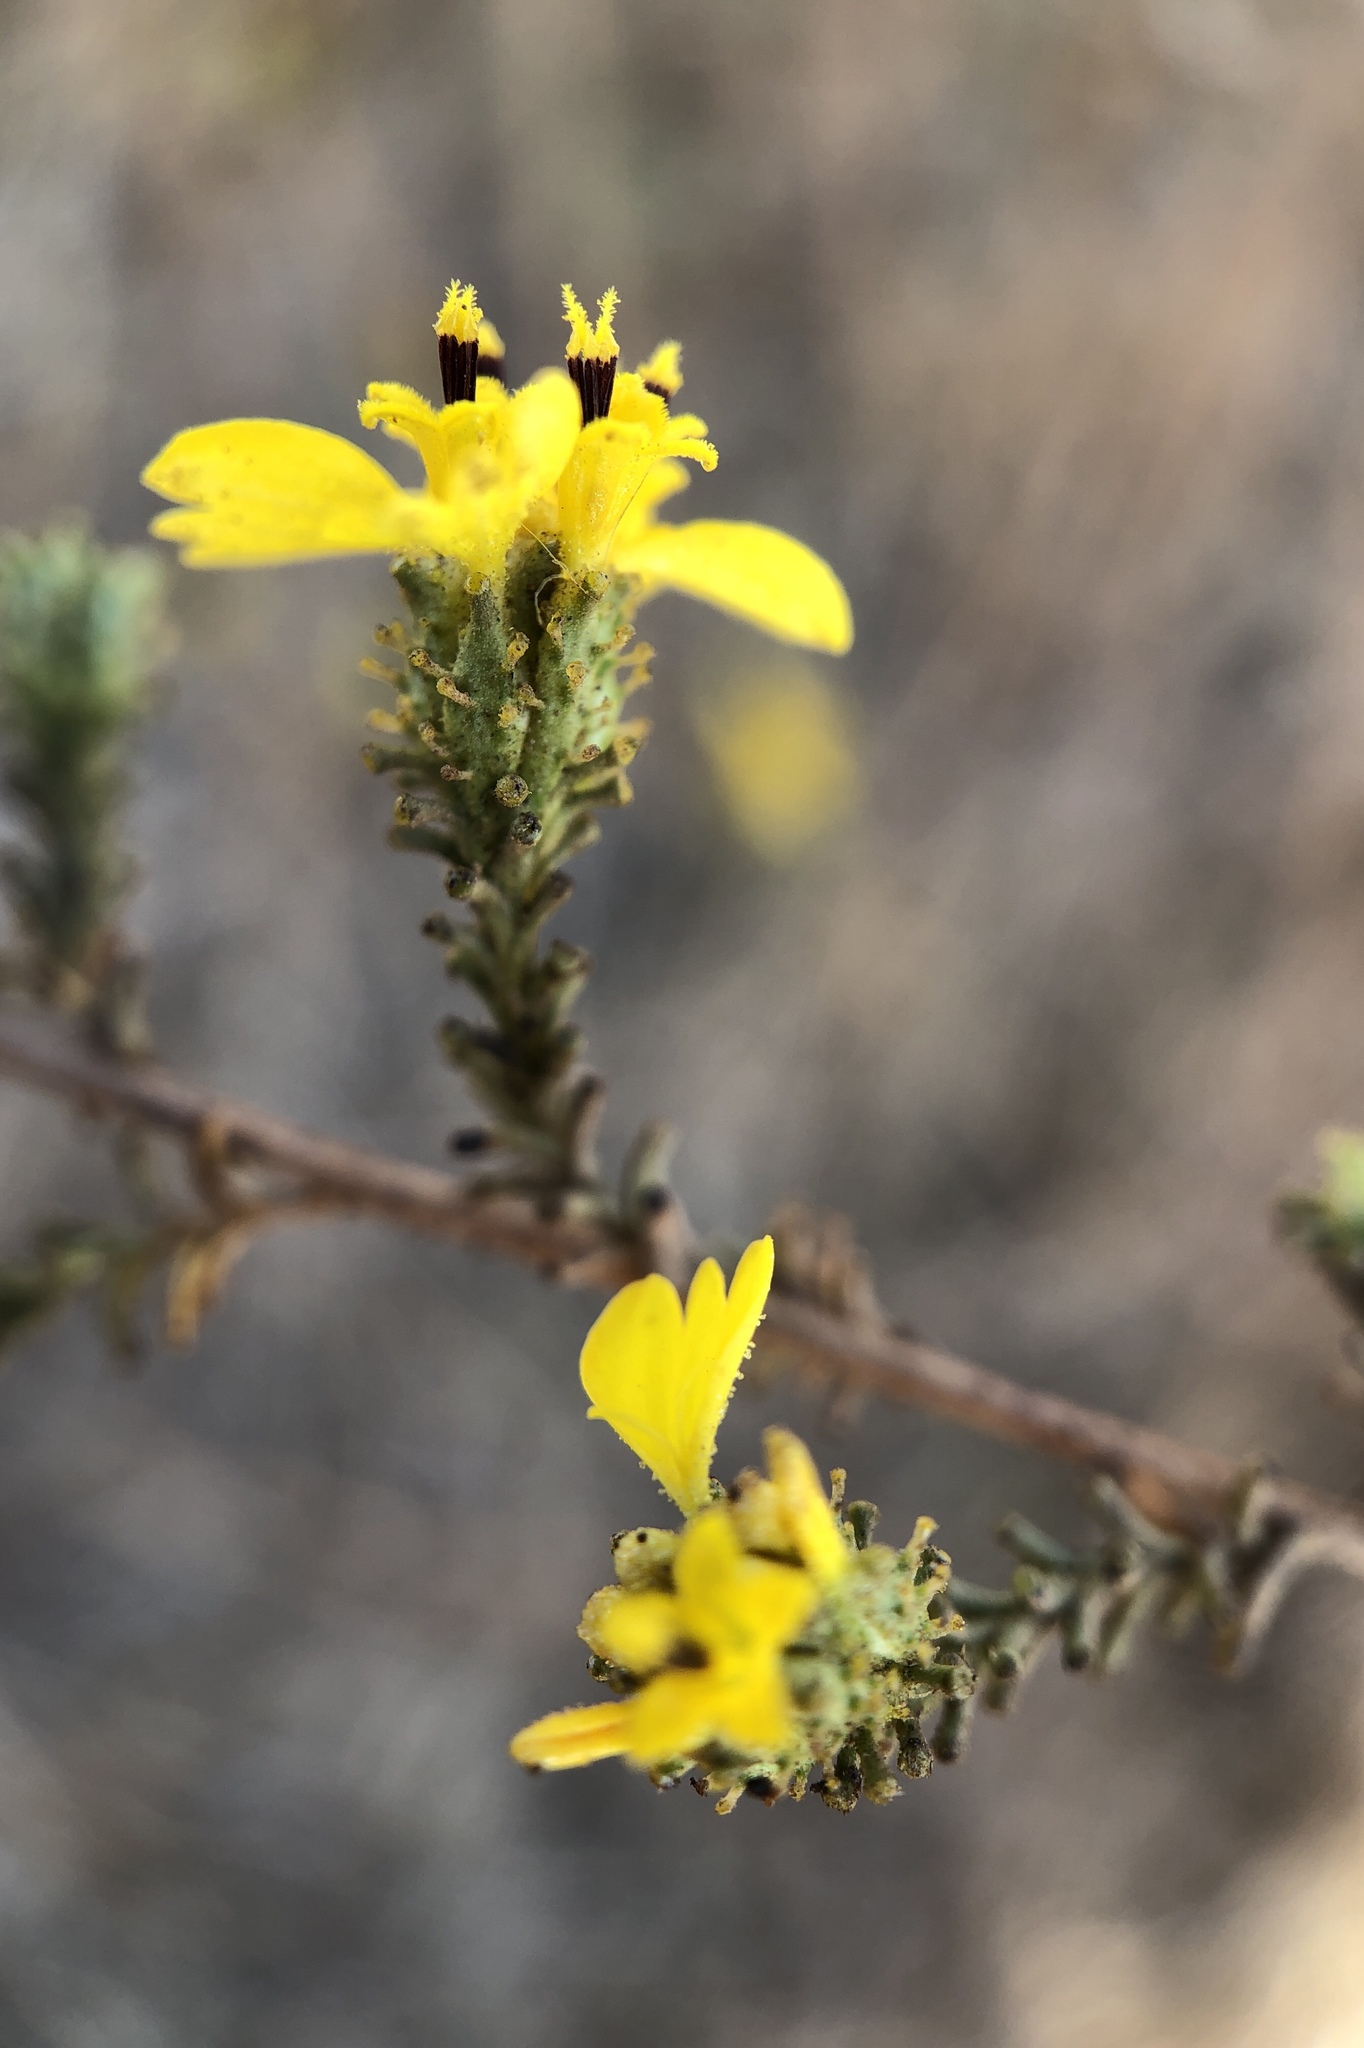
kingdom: Plantae
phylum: Tracheophyta
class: Magnoliopsida
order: Asterales
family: Asteraceae
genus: Holocarpha
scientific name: Holocarpha virgata
